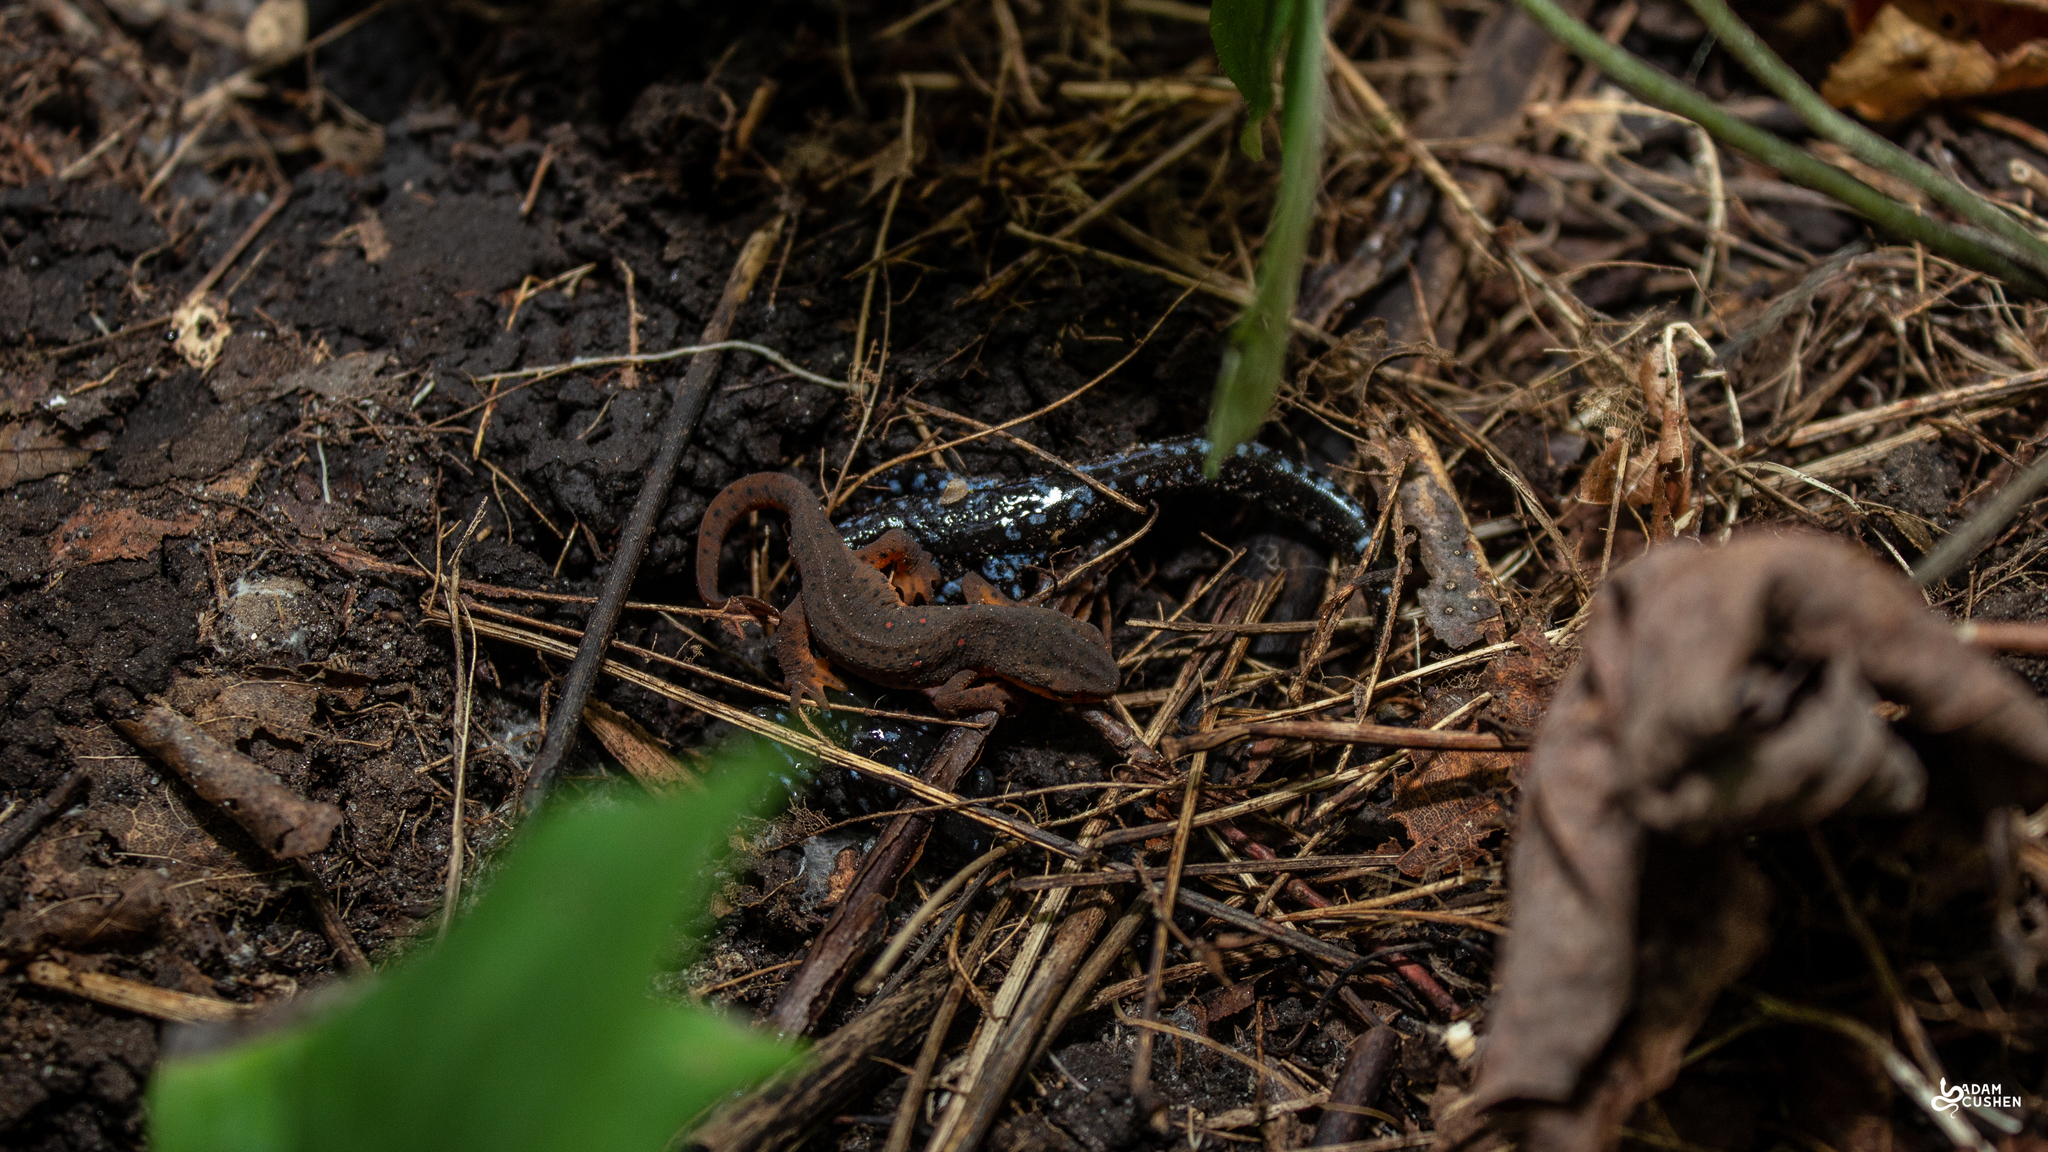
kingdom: Animalia
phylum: Chordata
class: Amphibia
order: Caudata
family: Salamandridae
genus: Notophthalmus
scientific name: Notophthalmus viridescens
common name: Eastern newt
